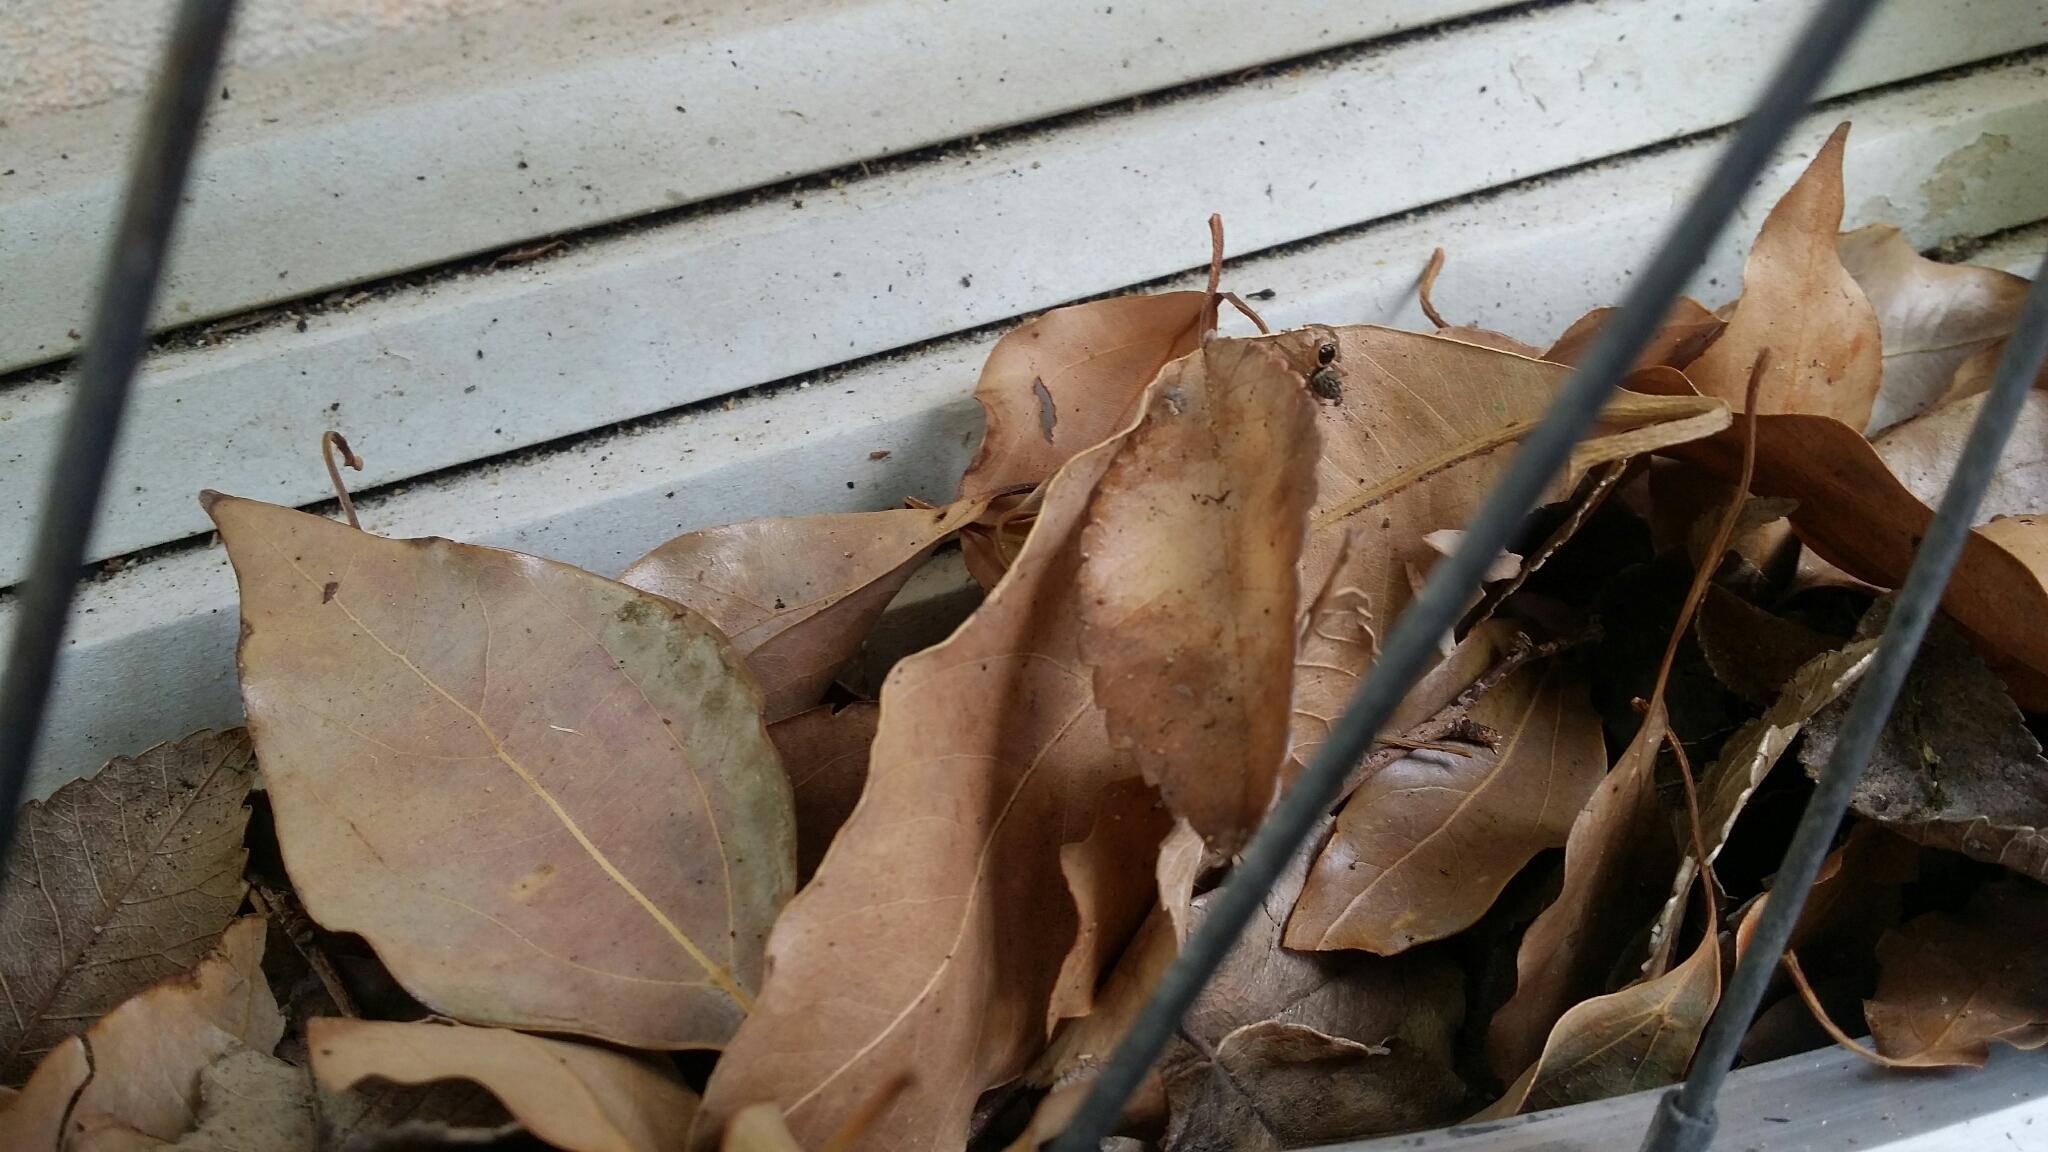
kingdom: Animalia
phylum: Arthropoda
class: Arachnida
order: Araneae
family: Salticidae
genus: Maratus
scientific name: Maratus griseus
